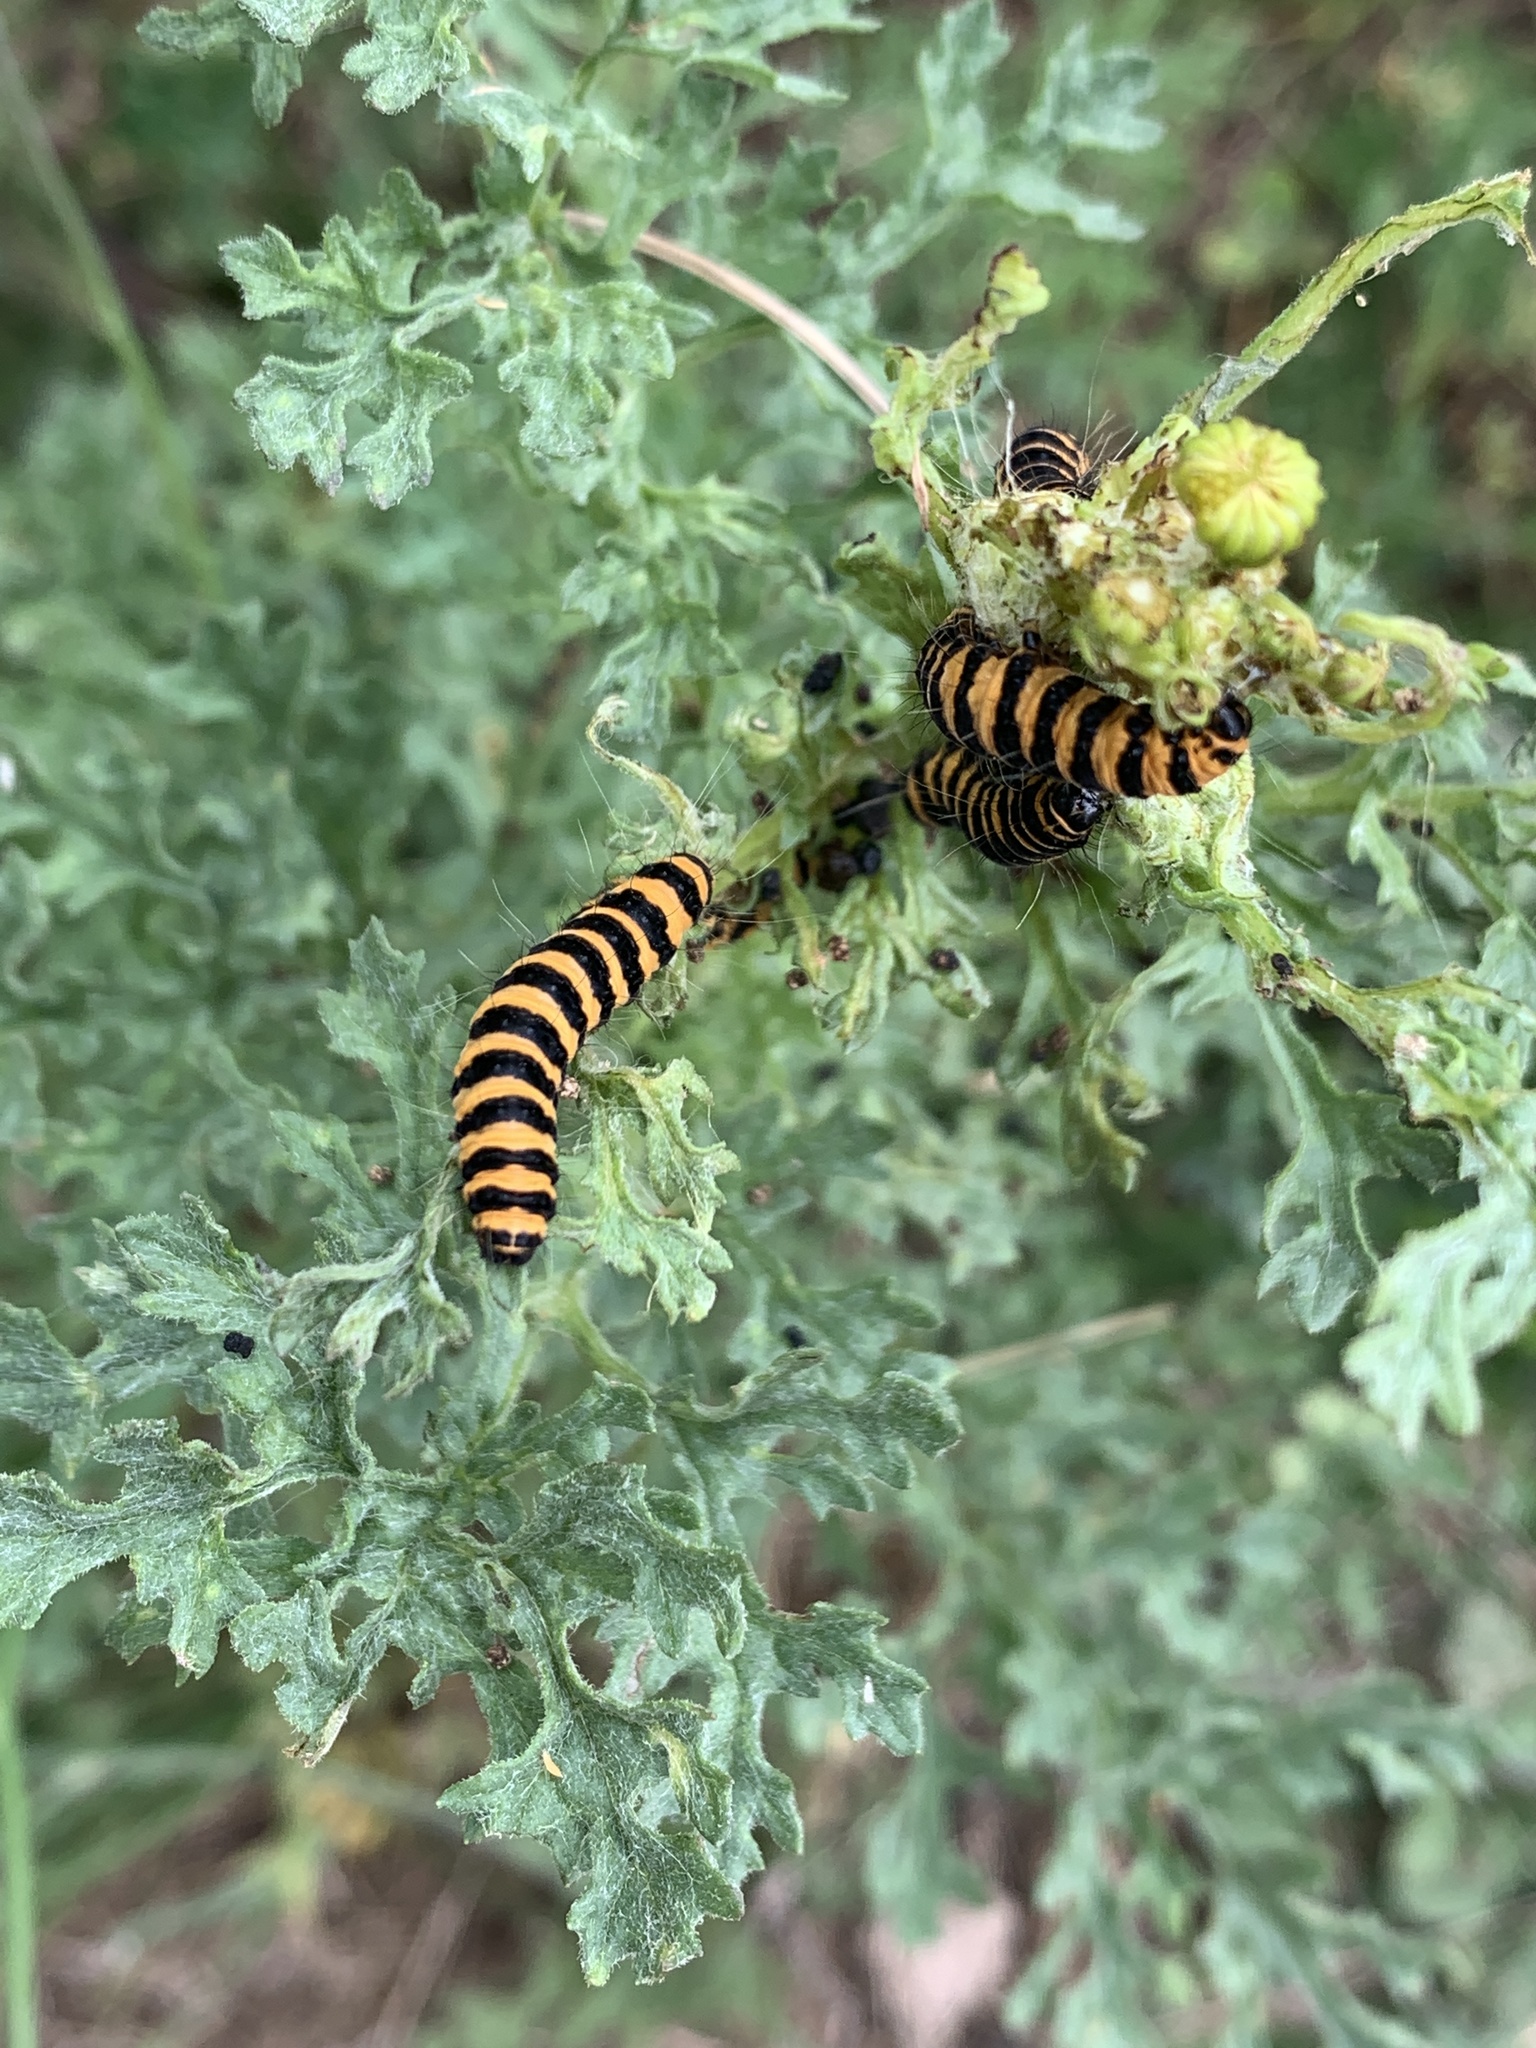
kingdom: Animalia
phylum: Arthropoda
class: Insecta
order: Lepidoptera
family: Erebidae
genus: Tyria
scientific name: Tyria jacobaeae
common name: Cinnabar
